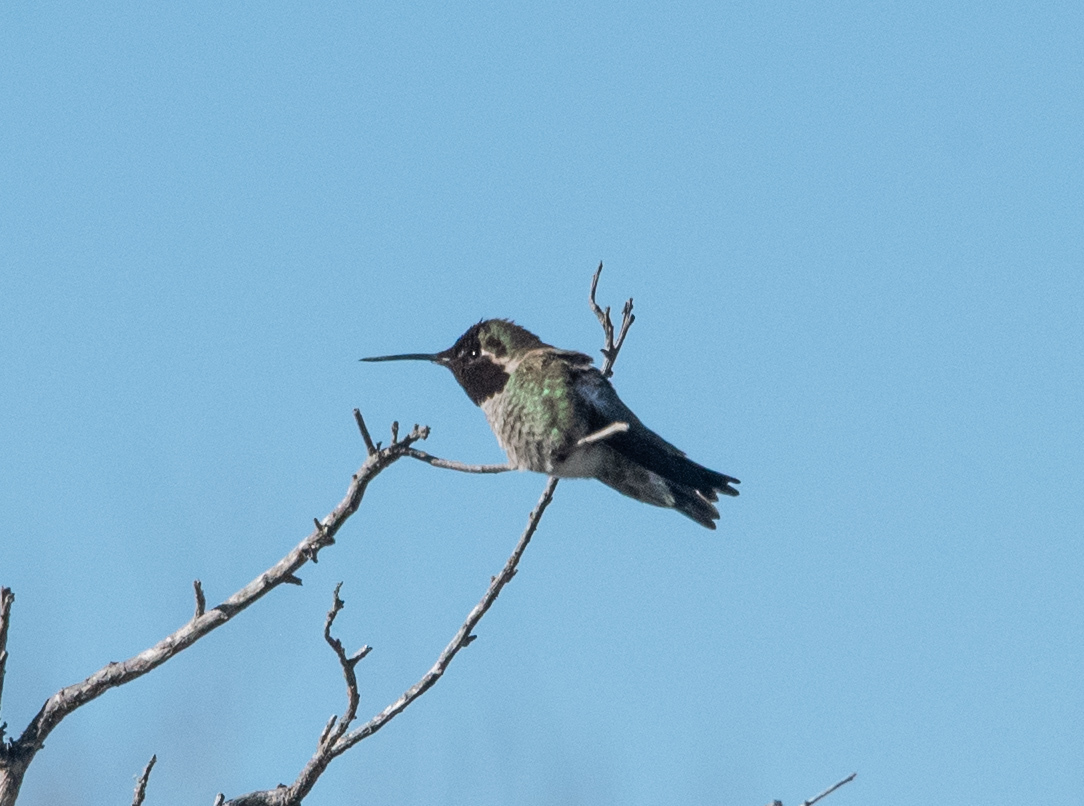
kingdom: Animalia
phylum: Chordata
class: Aves
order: Apodiformes
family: Trochilidae
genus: Calypte
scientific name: Calypte anna
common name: Anna's hummingbird
